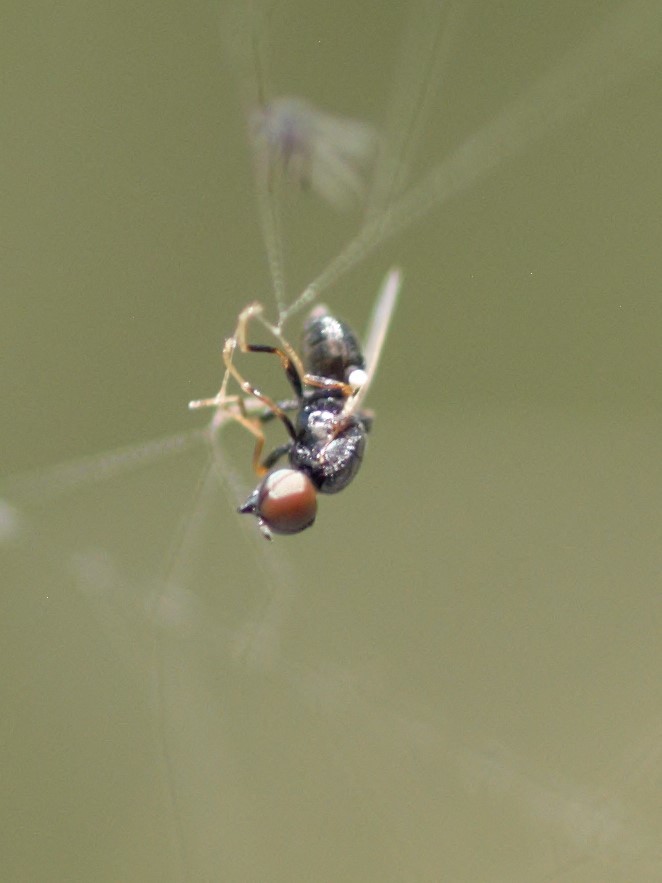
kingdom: Animalia
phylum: Arthropoda
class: Insecta
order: Diptera
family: Stratiomyidae
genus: Nemotelus
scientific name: Nemotelus
